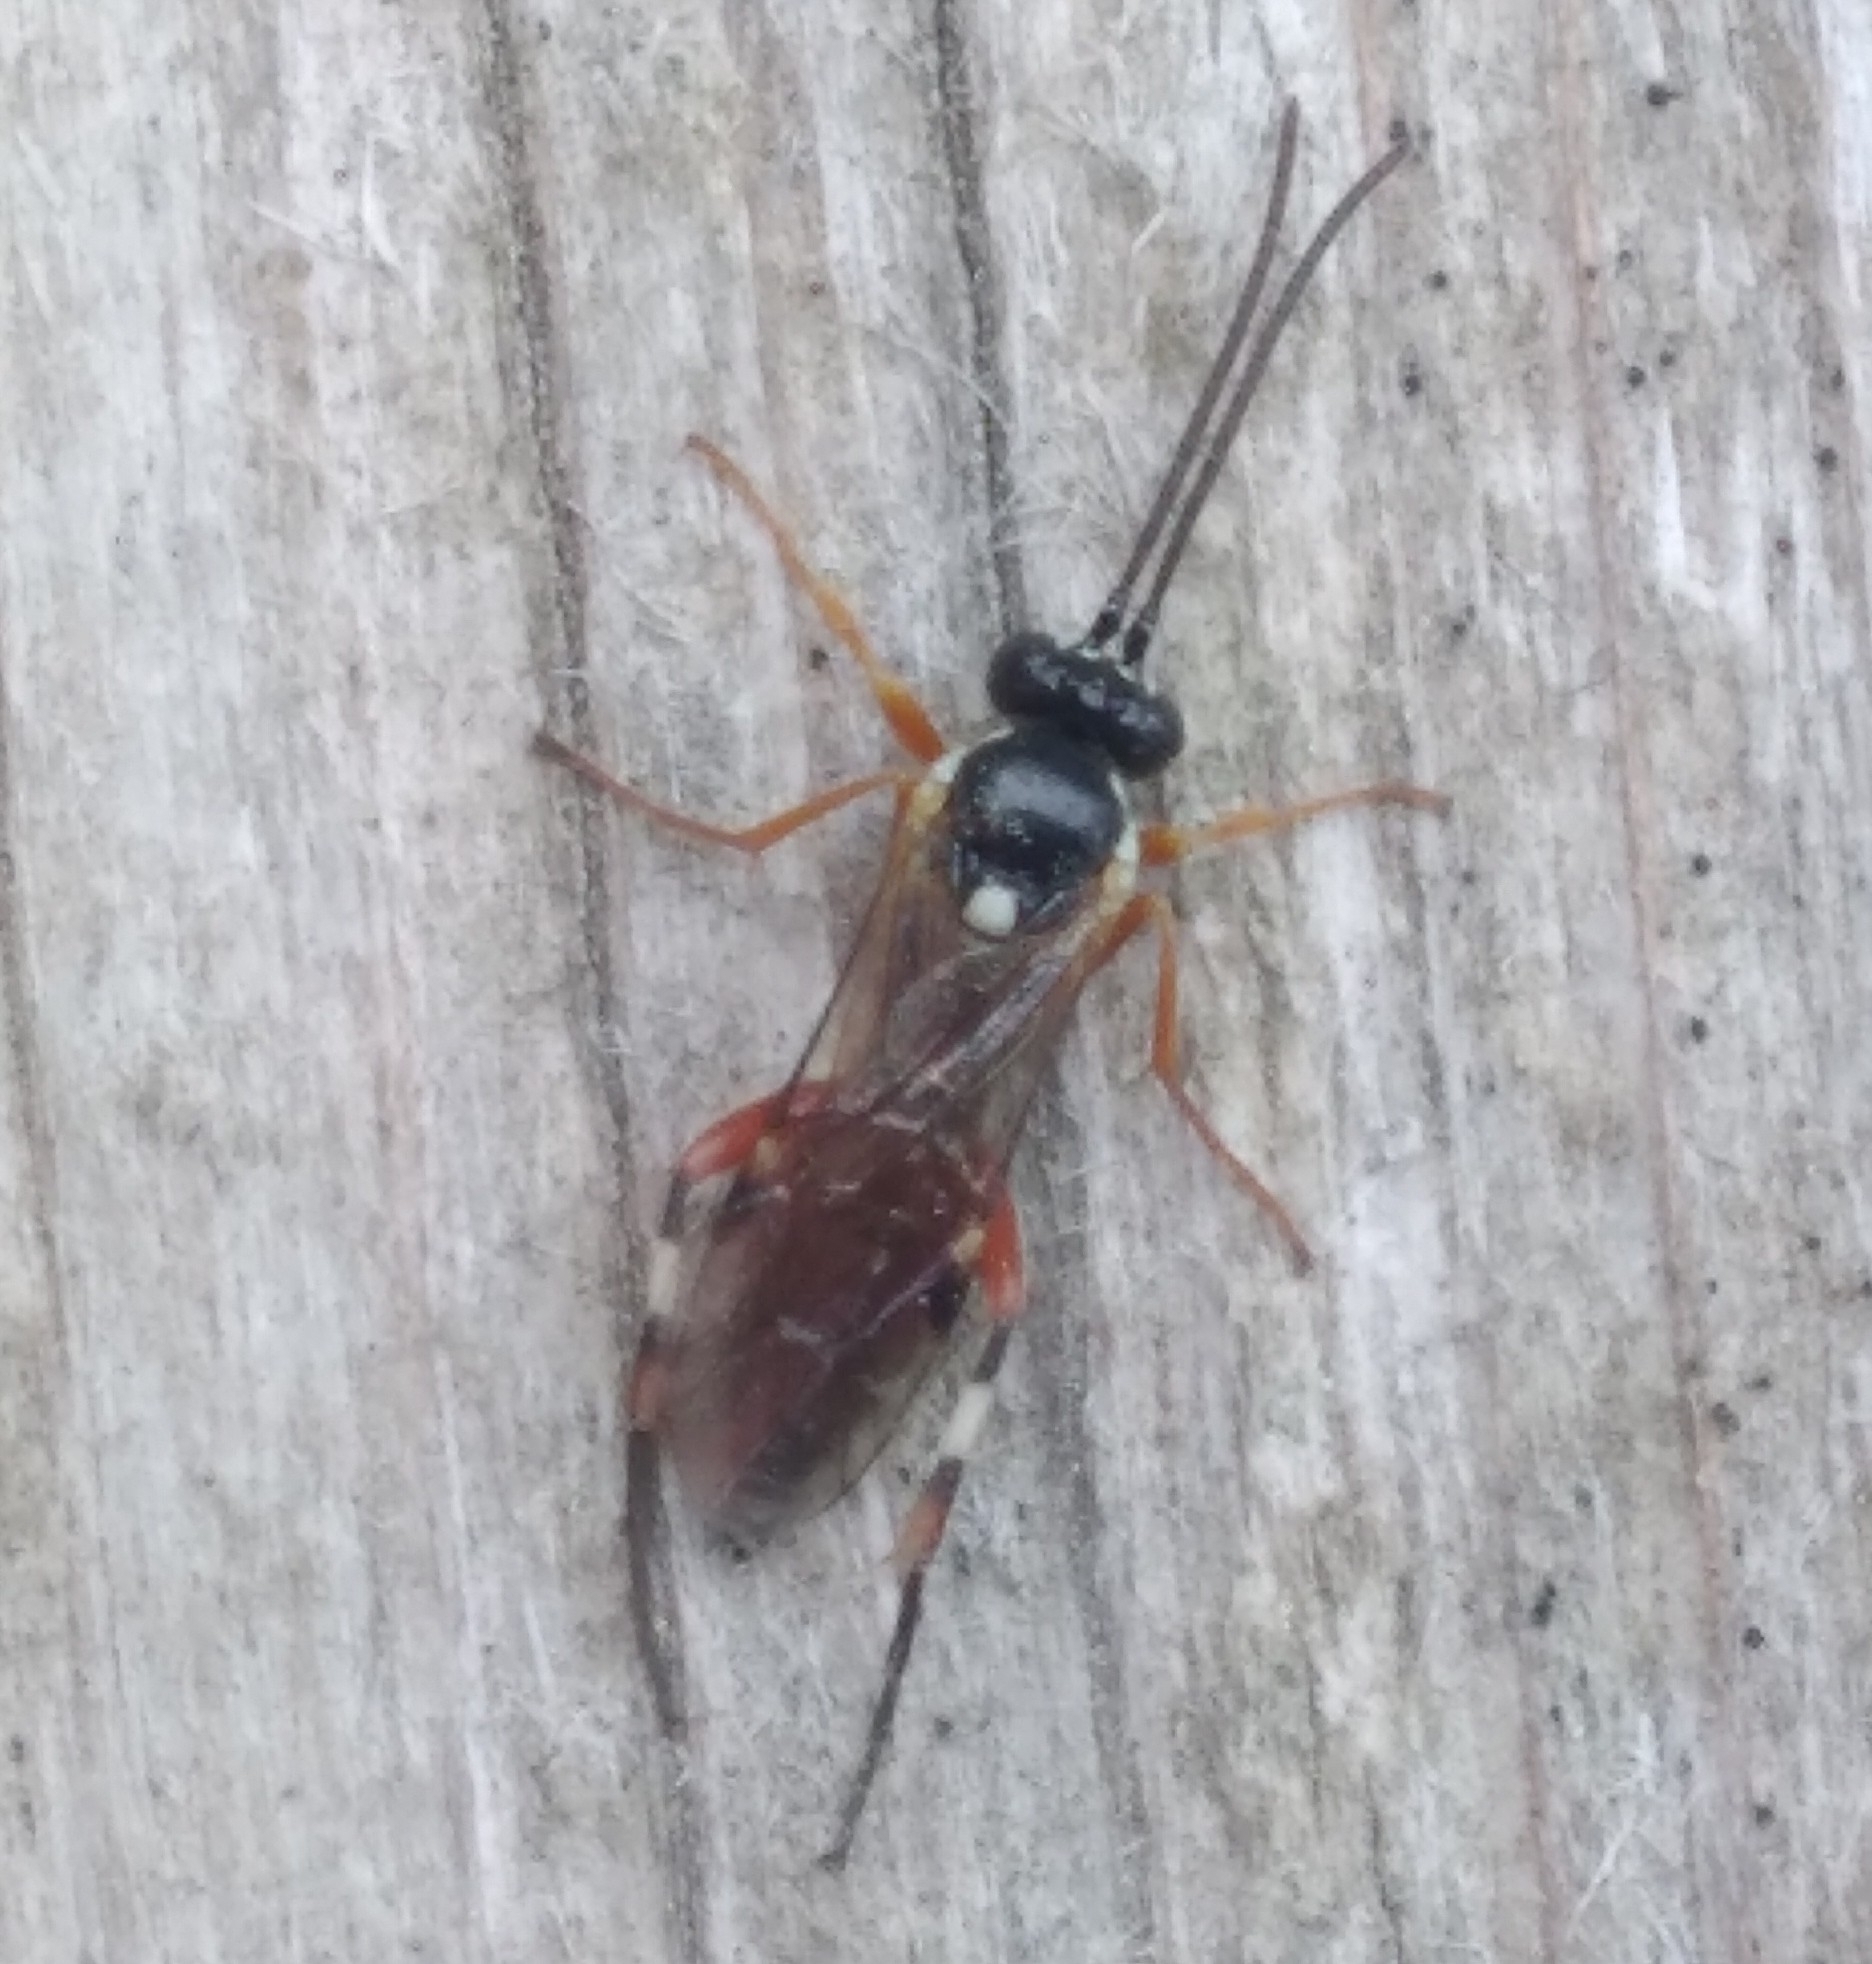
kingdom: Animalia
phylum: Arthropoda
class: Insecta
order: Hymenoptera
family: Ichneumonidae
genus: Diplazon
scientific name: Diplazon laetatorius
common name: Parasitoid wasp
